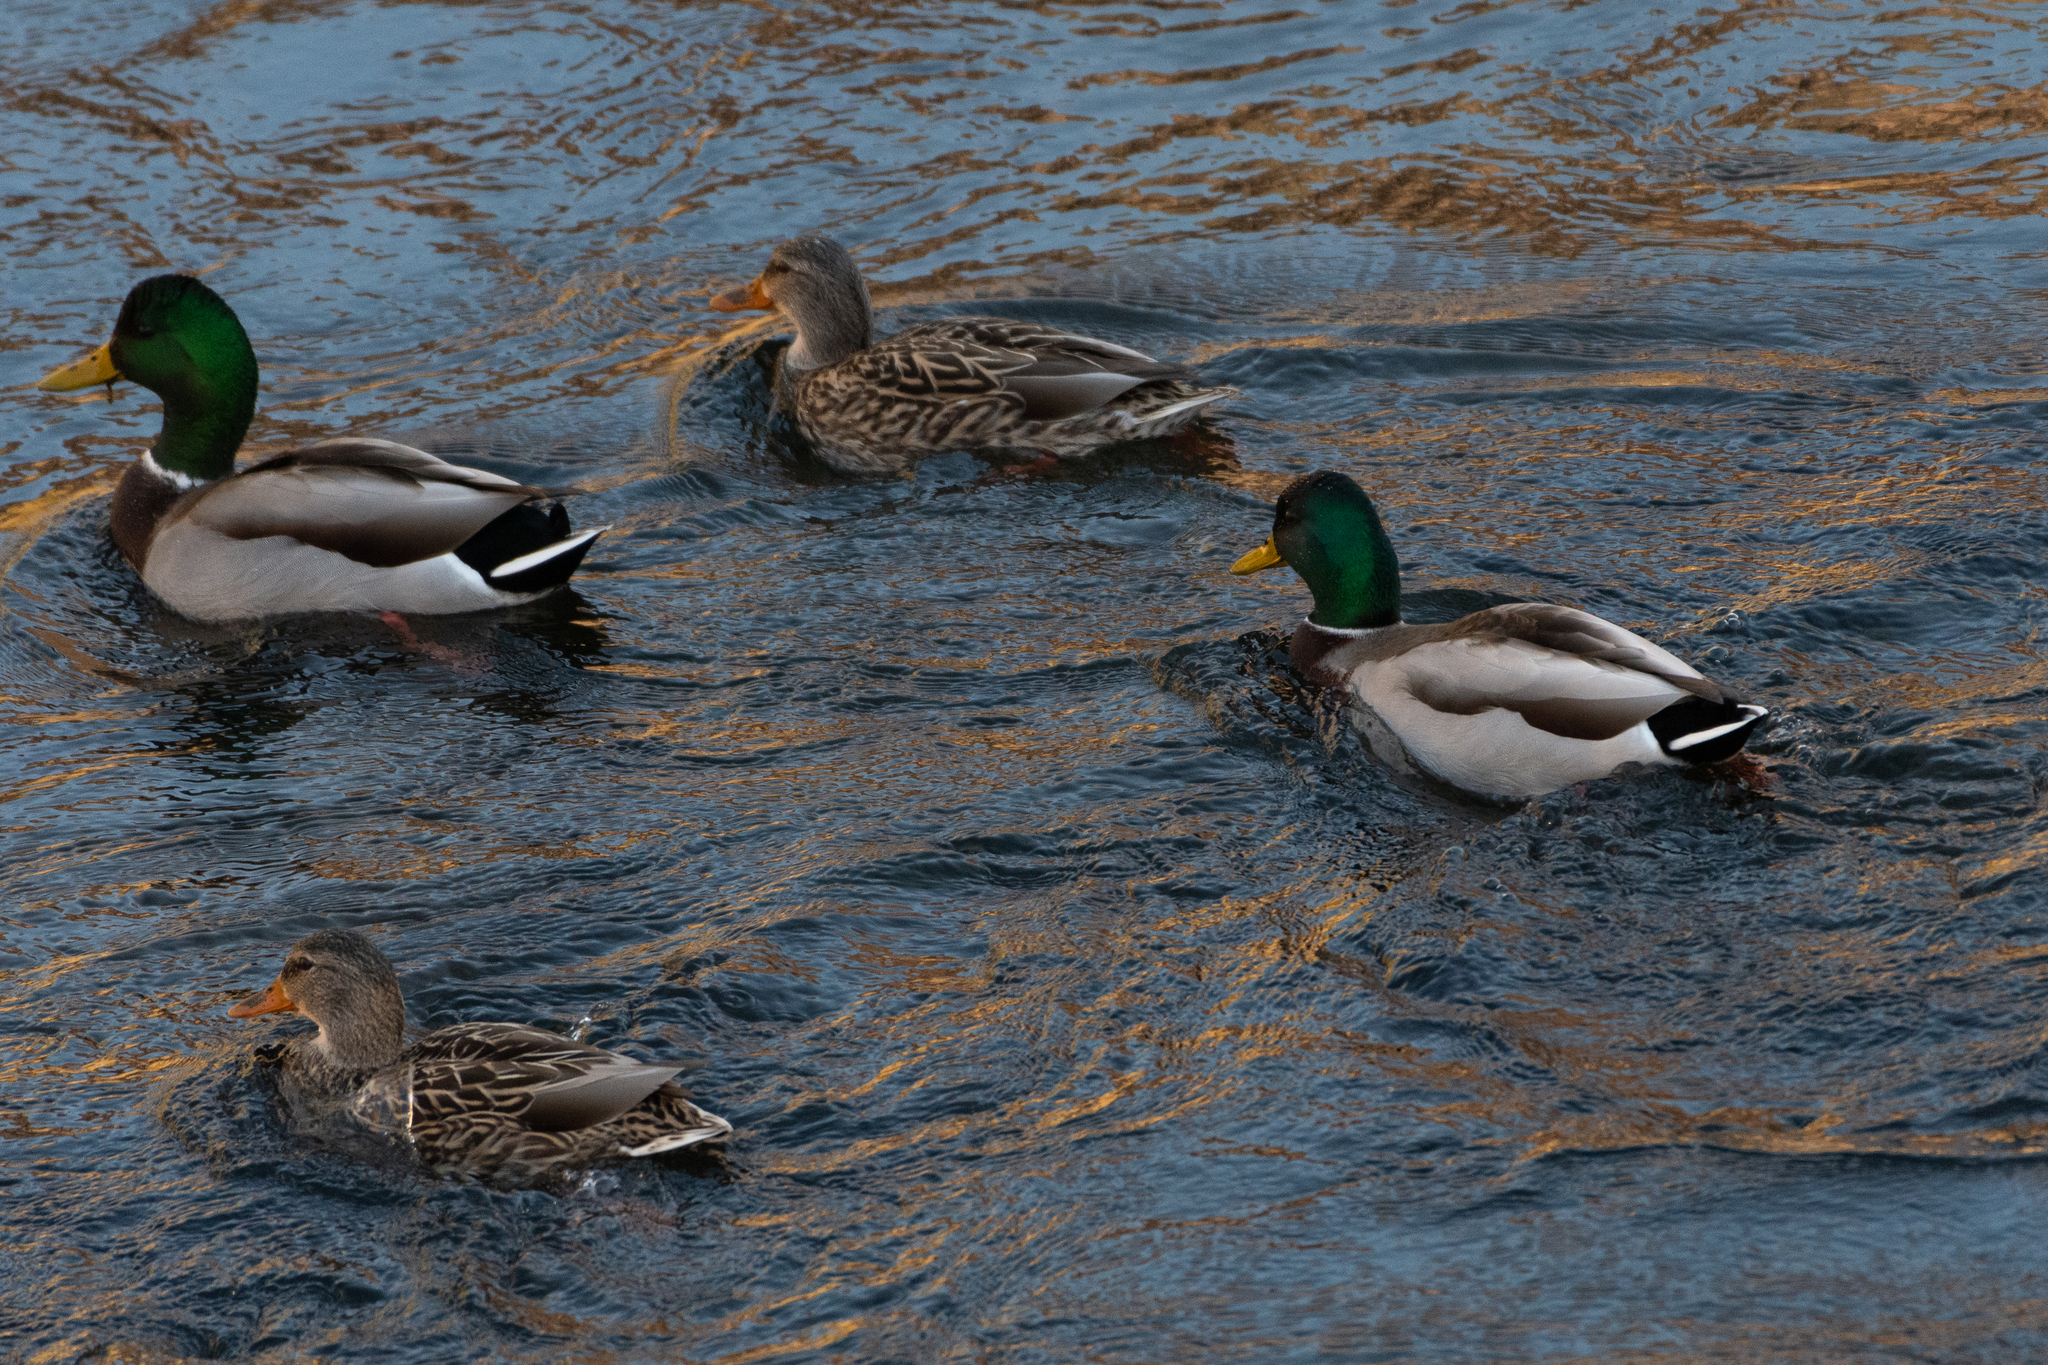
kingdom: Animalia
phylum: Chordata
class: Aves
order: Anseriformes
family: Anatidae
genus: Anas
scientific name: Anas platyrhynchos
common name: Mallard
